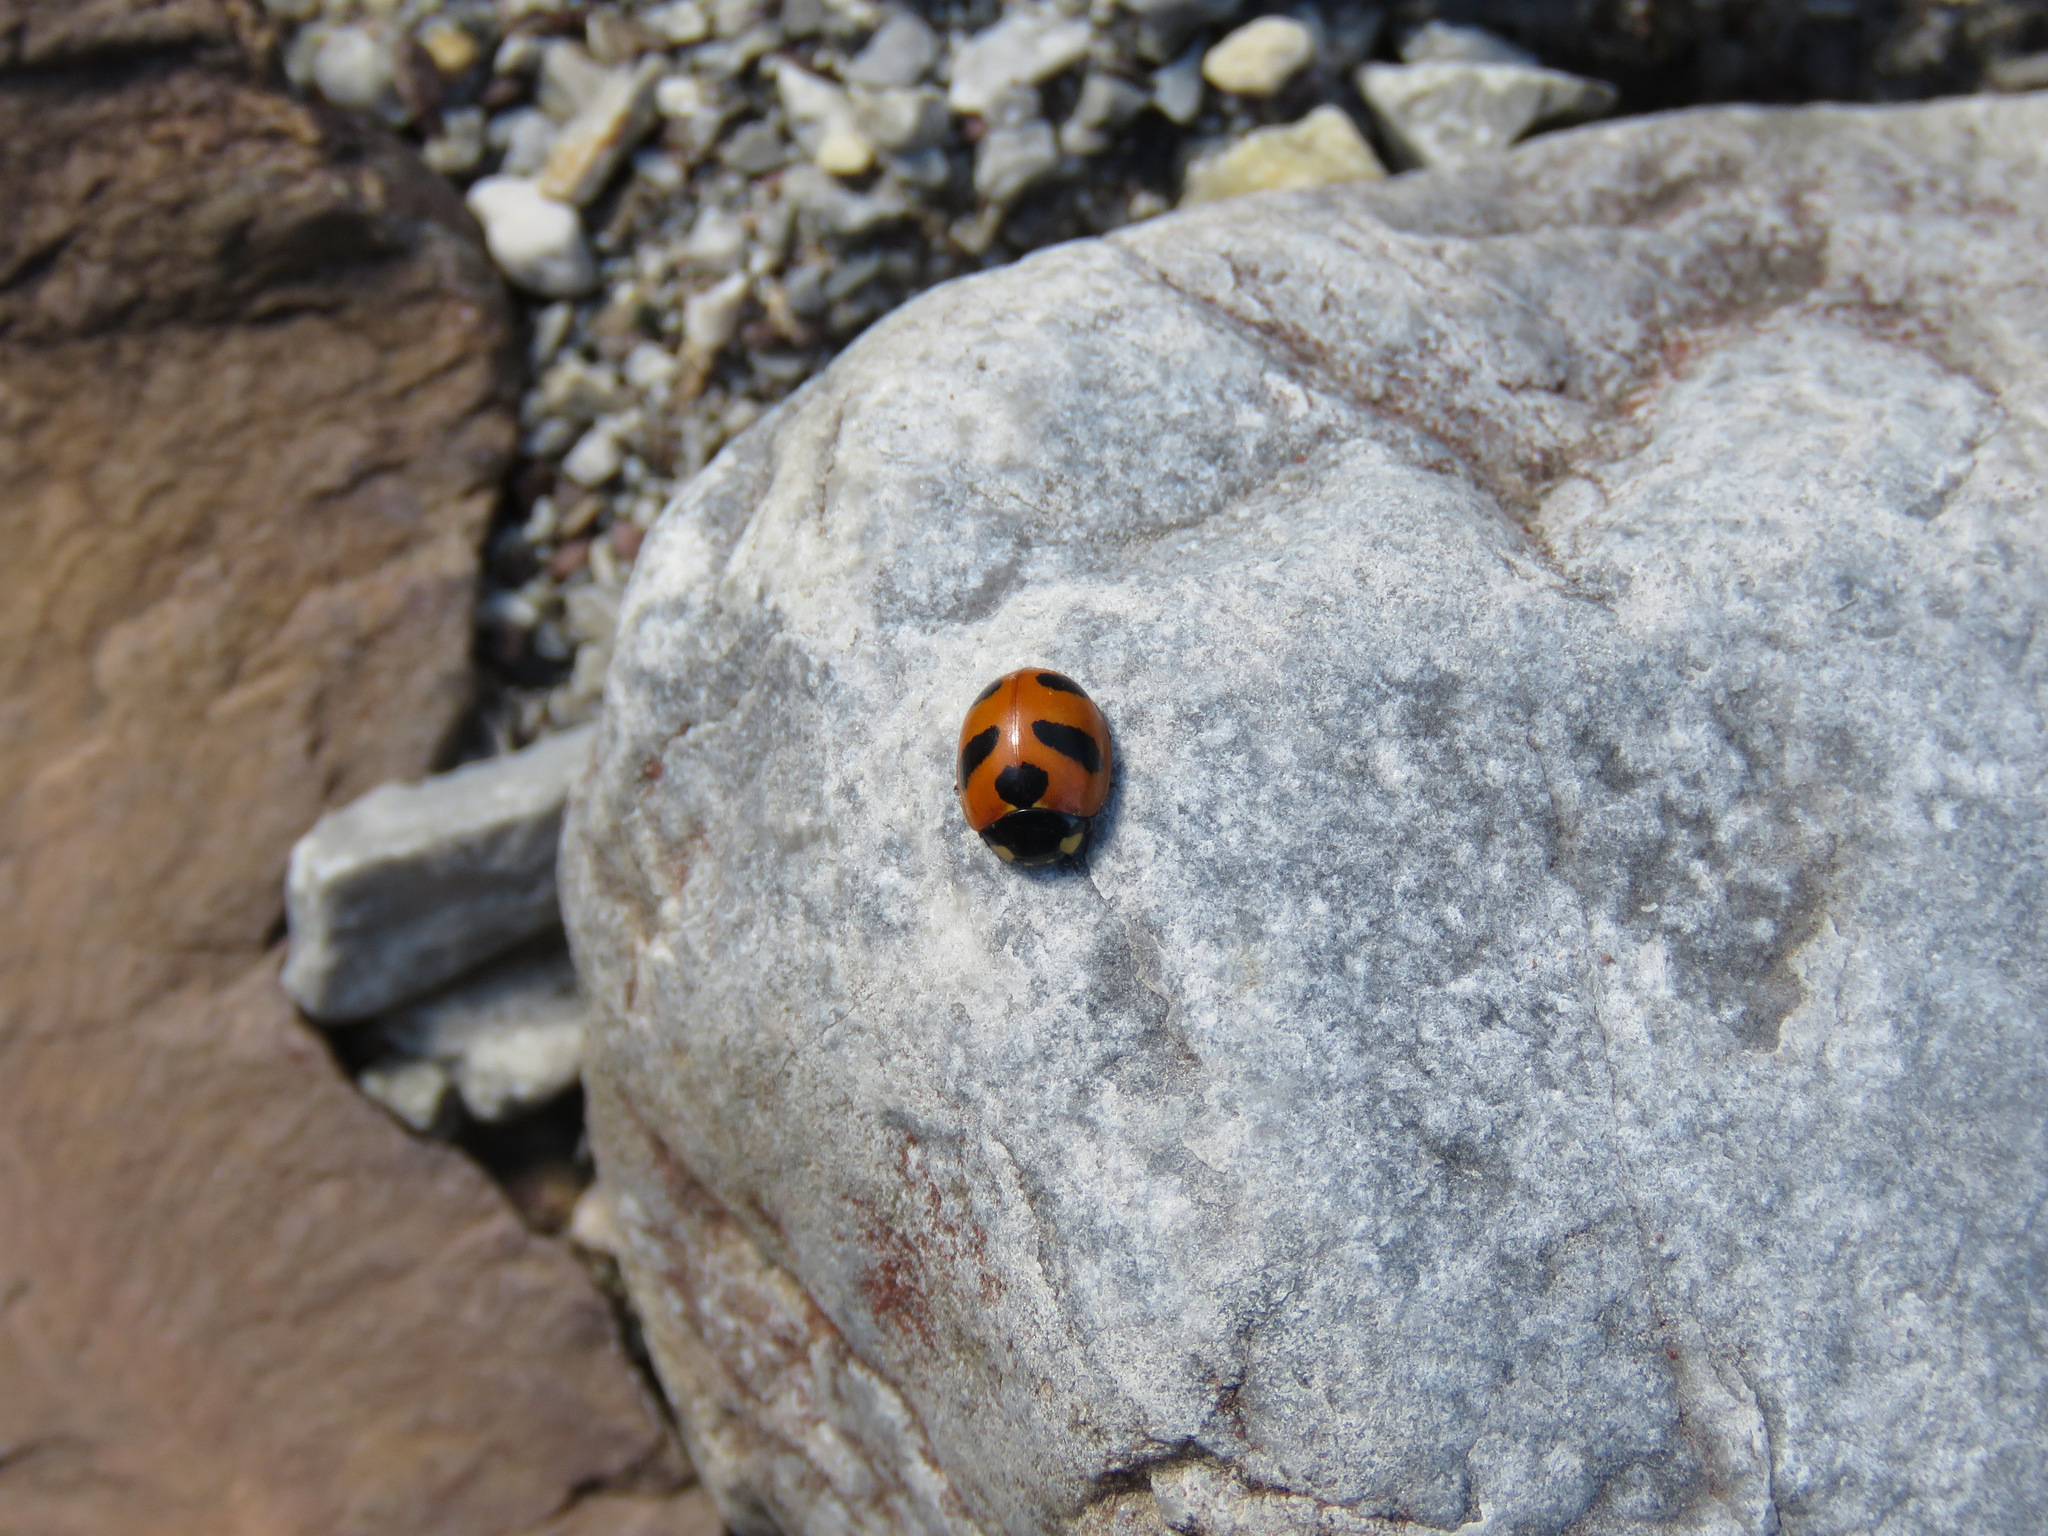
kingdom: Animalia
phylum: Arthropoda
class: Insecta
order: Coleoptera
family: Coccinellidae
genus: Coccinella
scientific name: Coccinella monticola
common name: Mountain lady beetle
